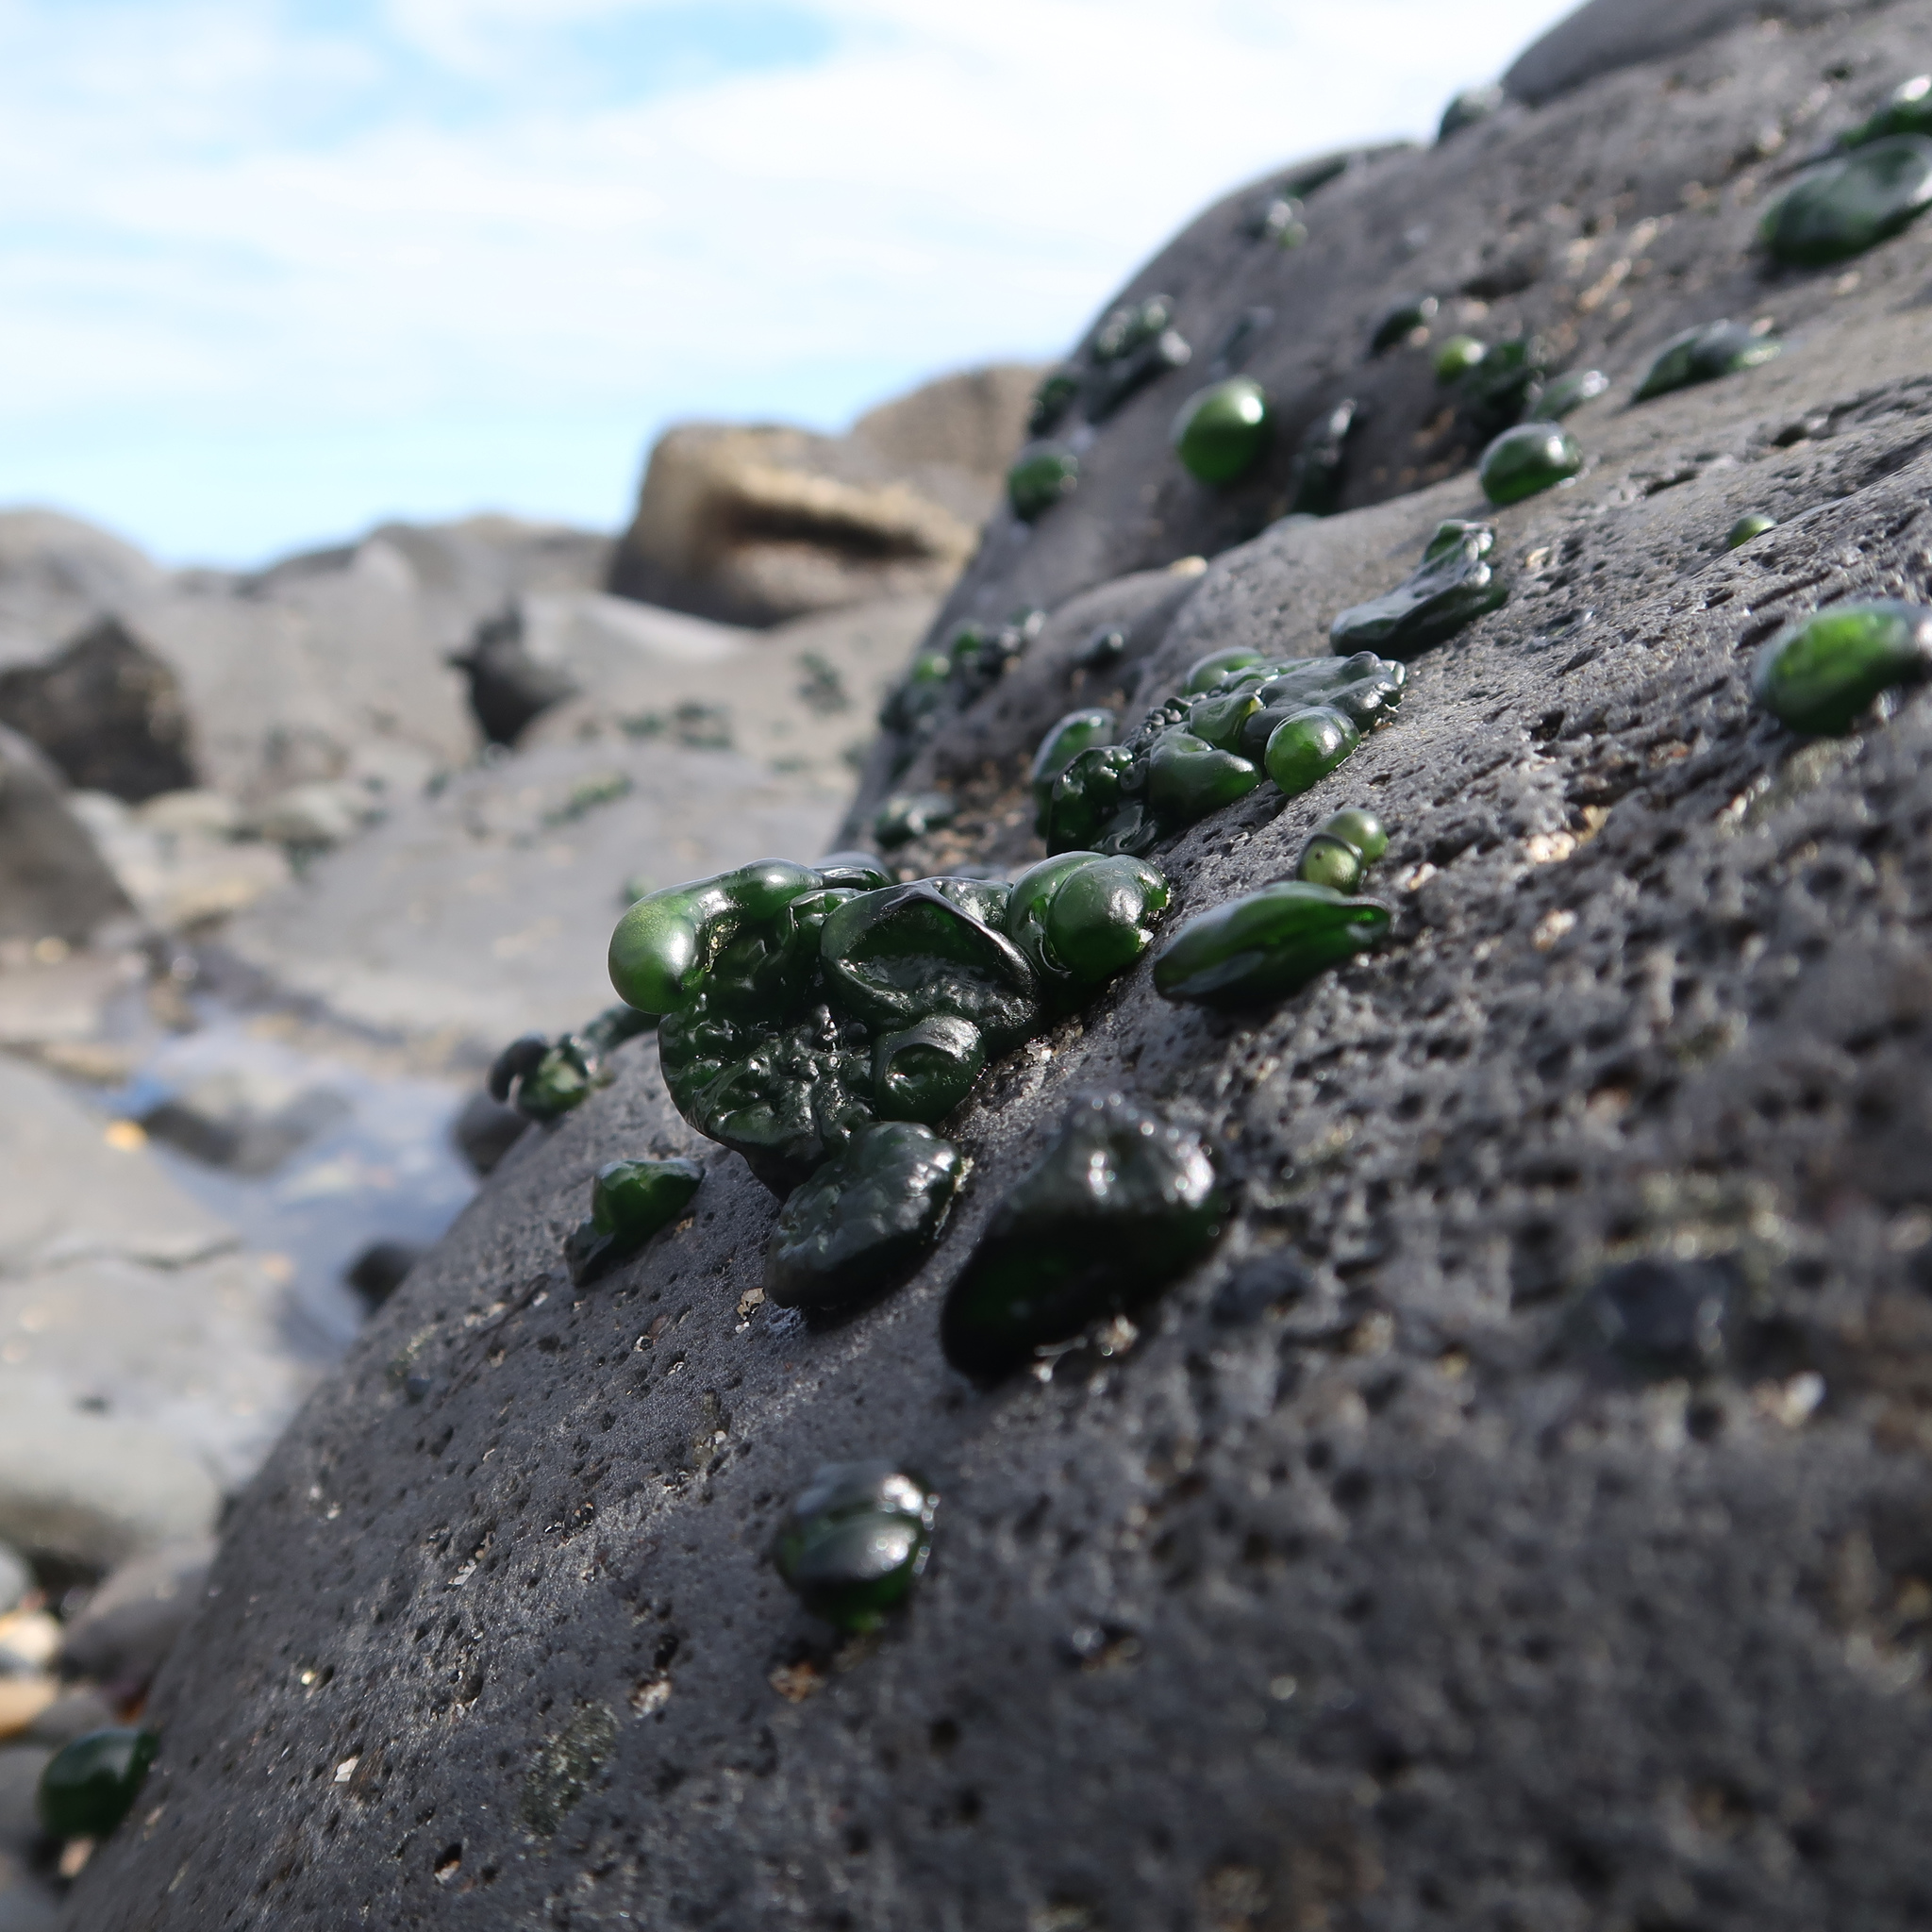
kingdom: Bacteria
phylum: Cyanobacteria
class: Cyanobacteriia
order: Cyanobacteriales
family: Rivulariaceae
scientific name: Rivulariaceae
